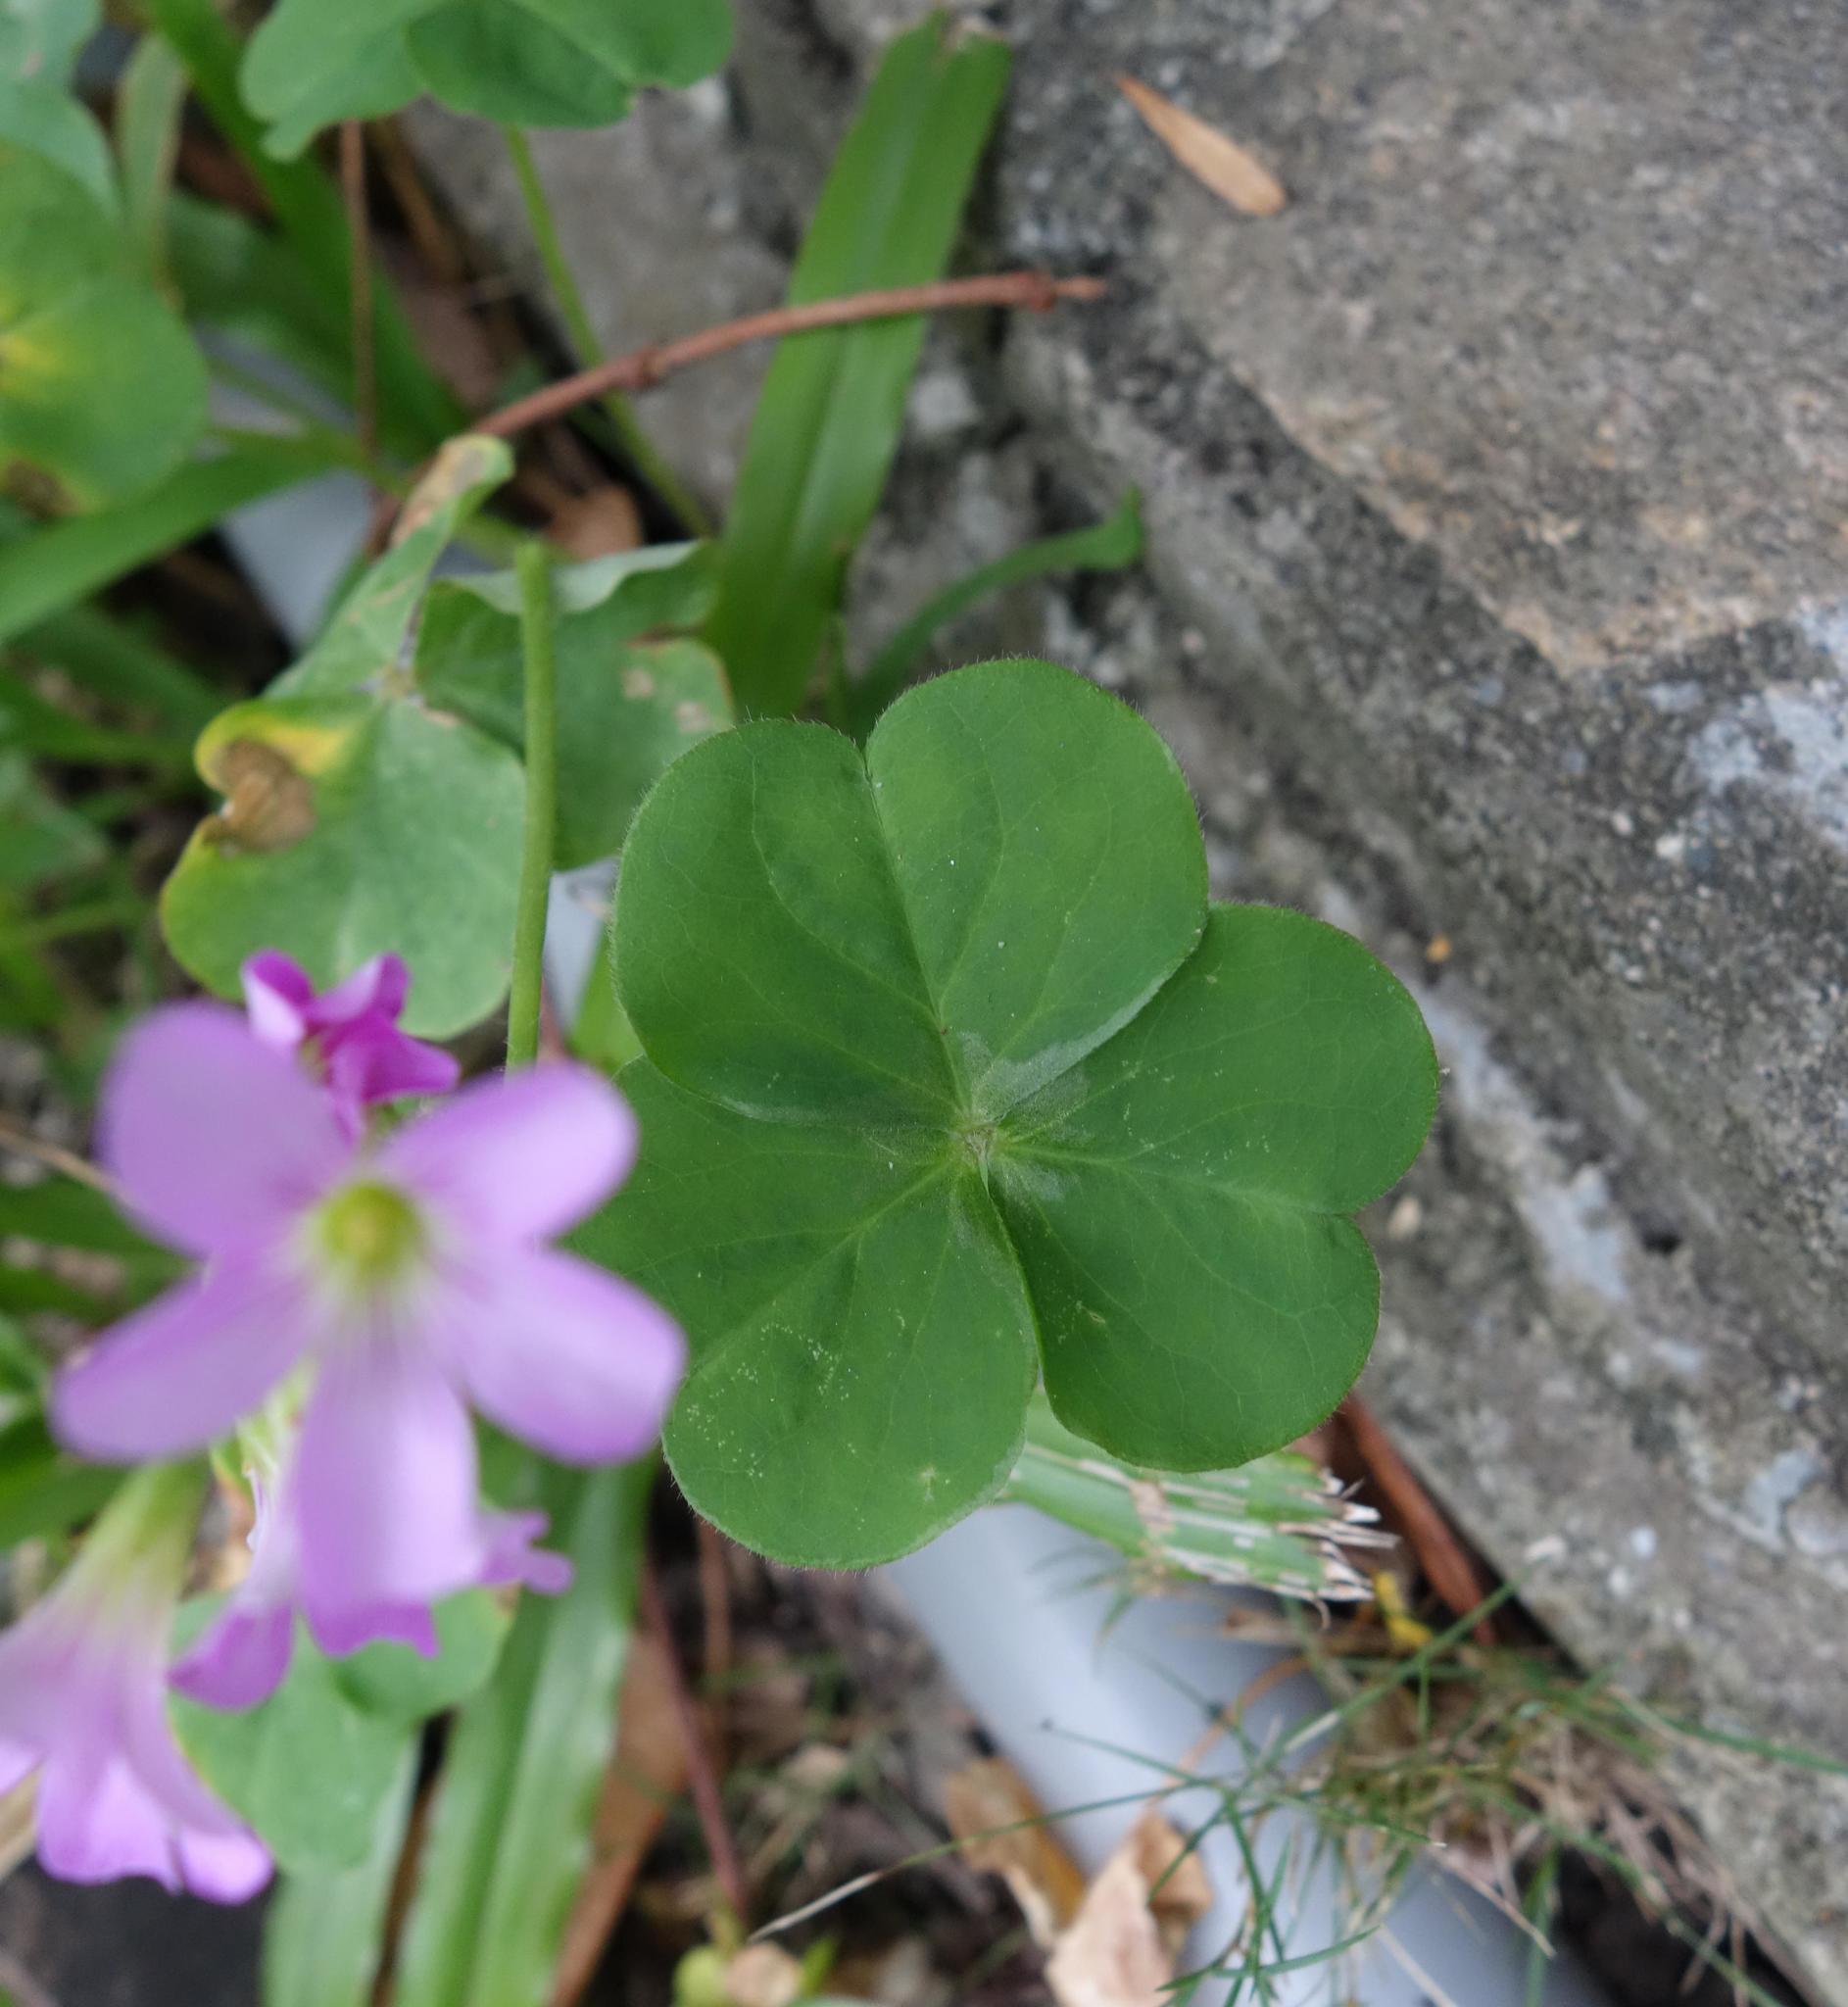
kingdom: Plantae
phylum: Tracheophyta
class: Magnoliopsida
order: Oxalidales
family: Oxalidaceae
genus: Oxalis
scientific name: Oxalis debilis
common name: Large-flowered pink-sorrel
